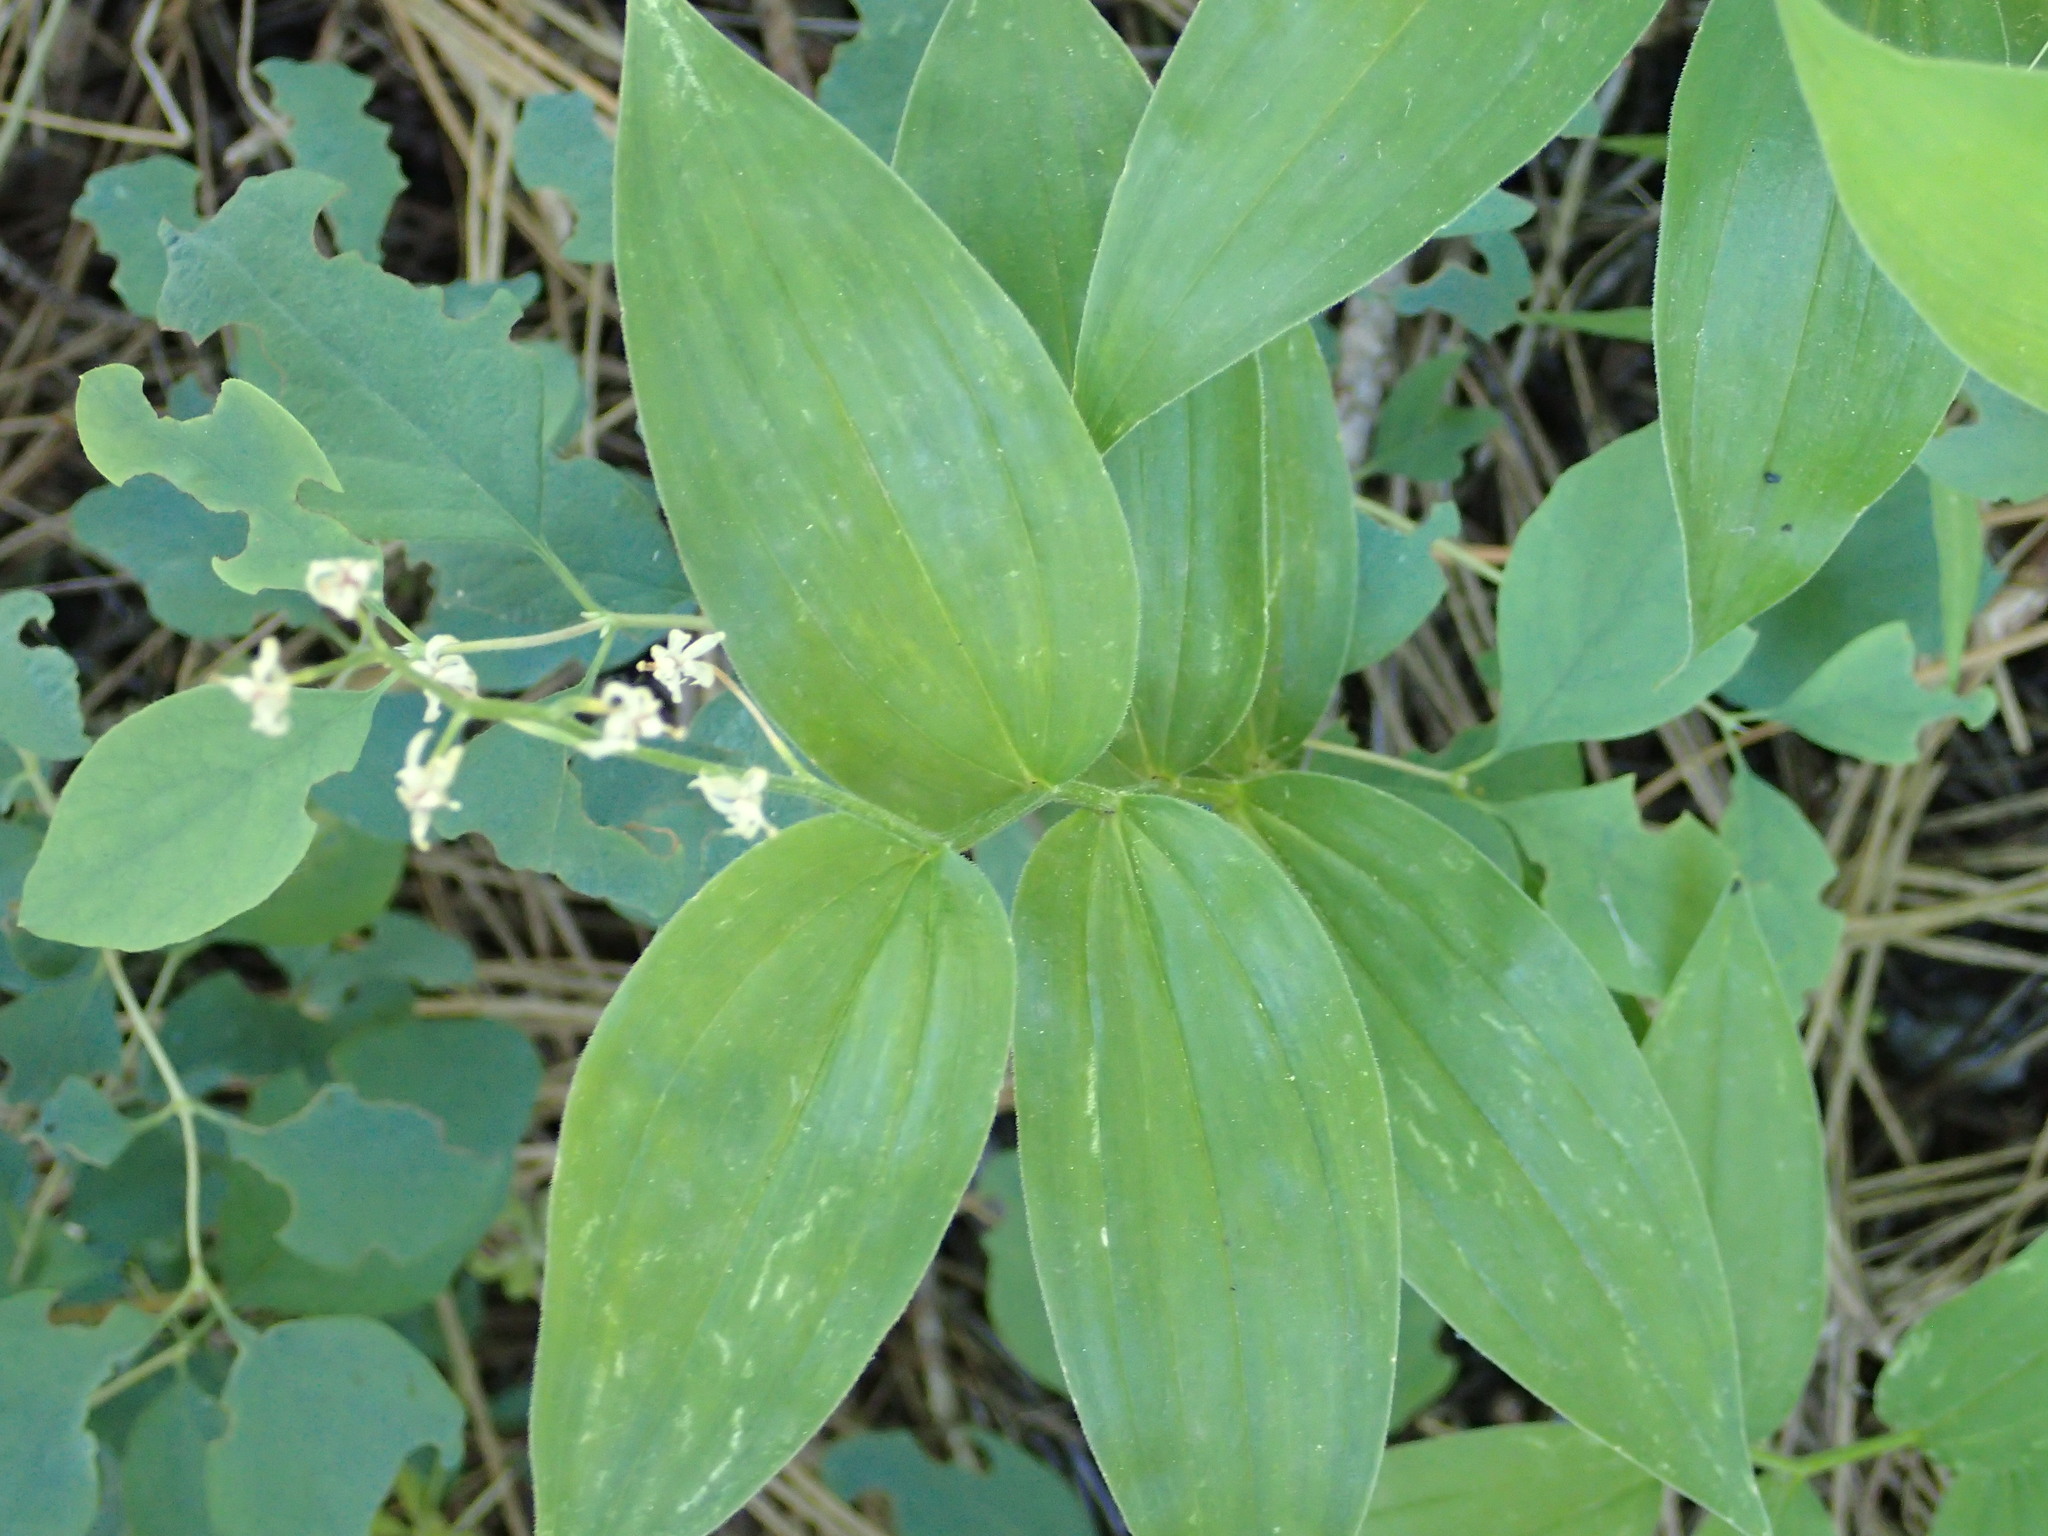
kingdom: Plantae
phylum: Tracheophyta
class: Liliopsida
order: Asparagales
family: Asparagaceae
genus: Maianthemum
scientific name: Maianthemum stellatum
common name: Little false solomon's seal
